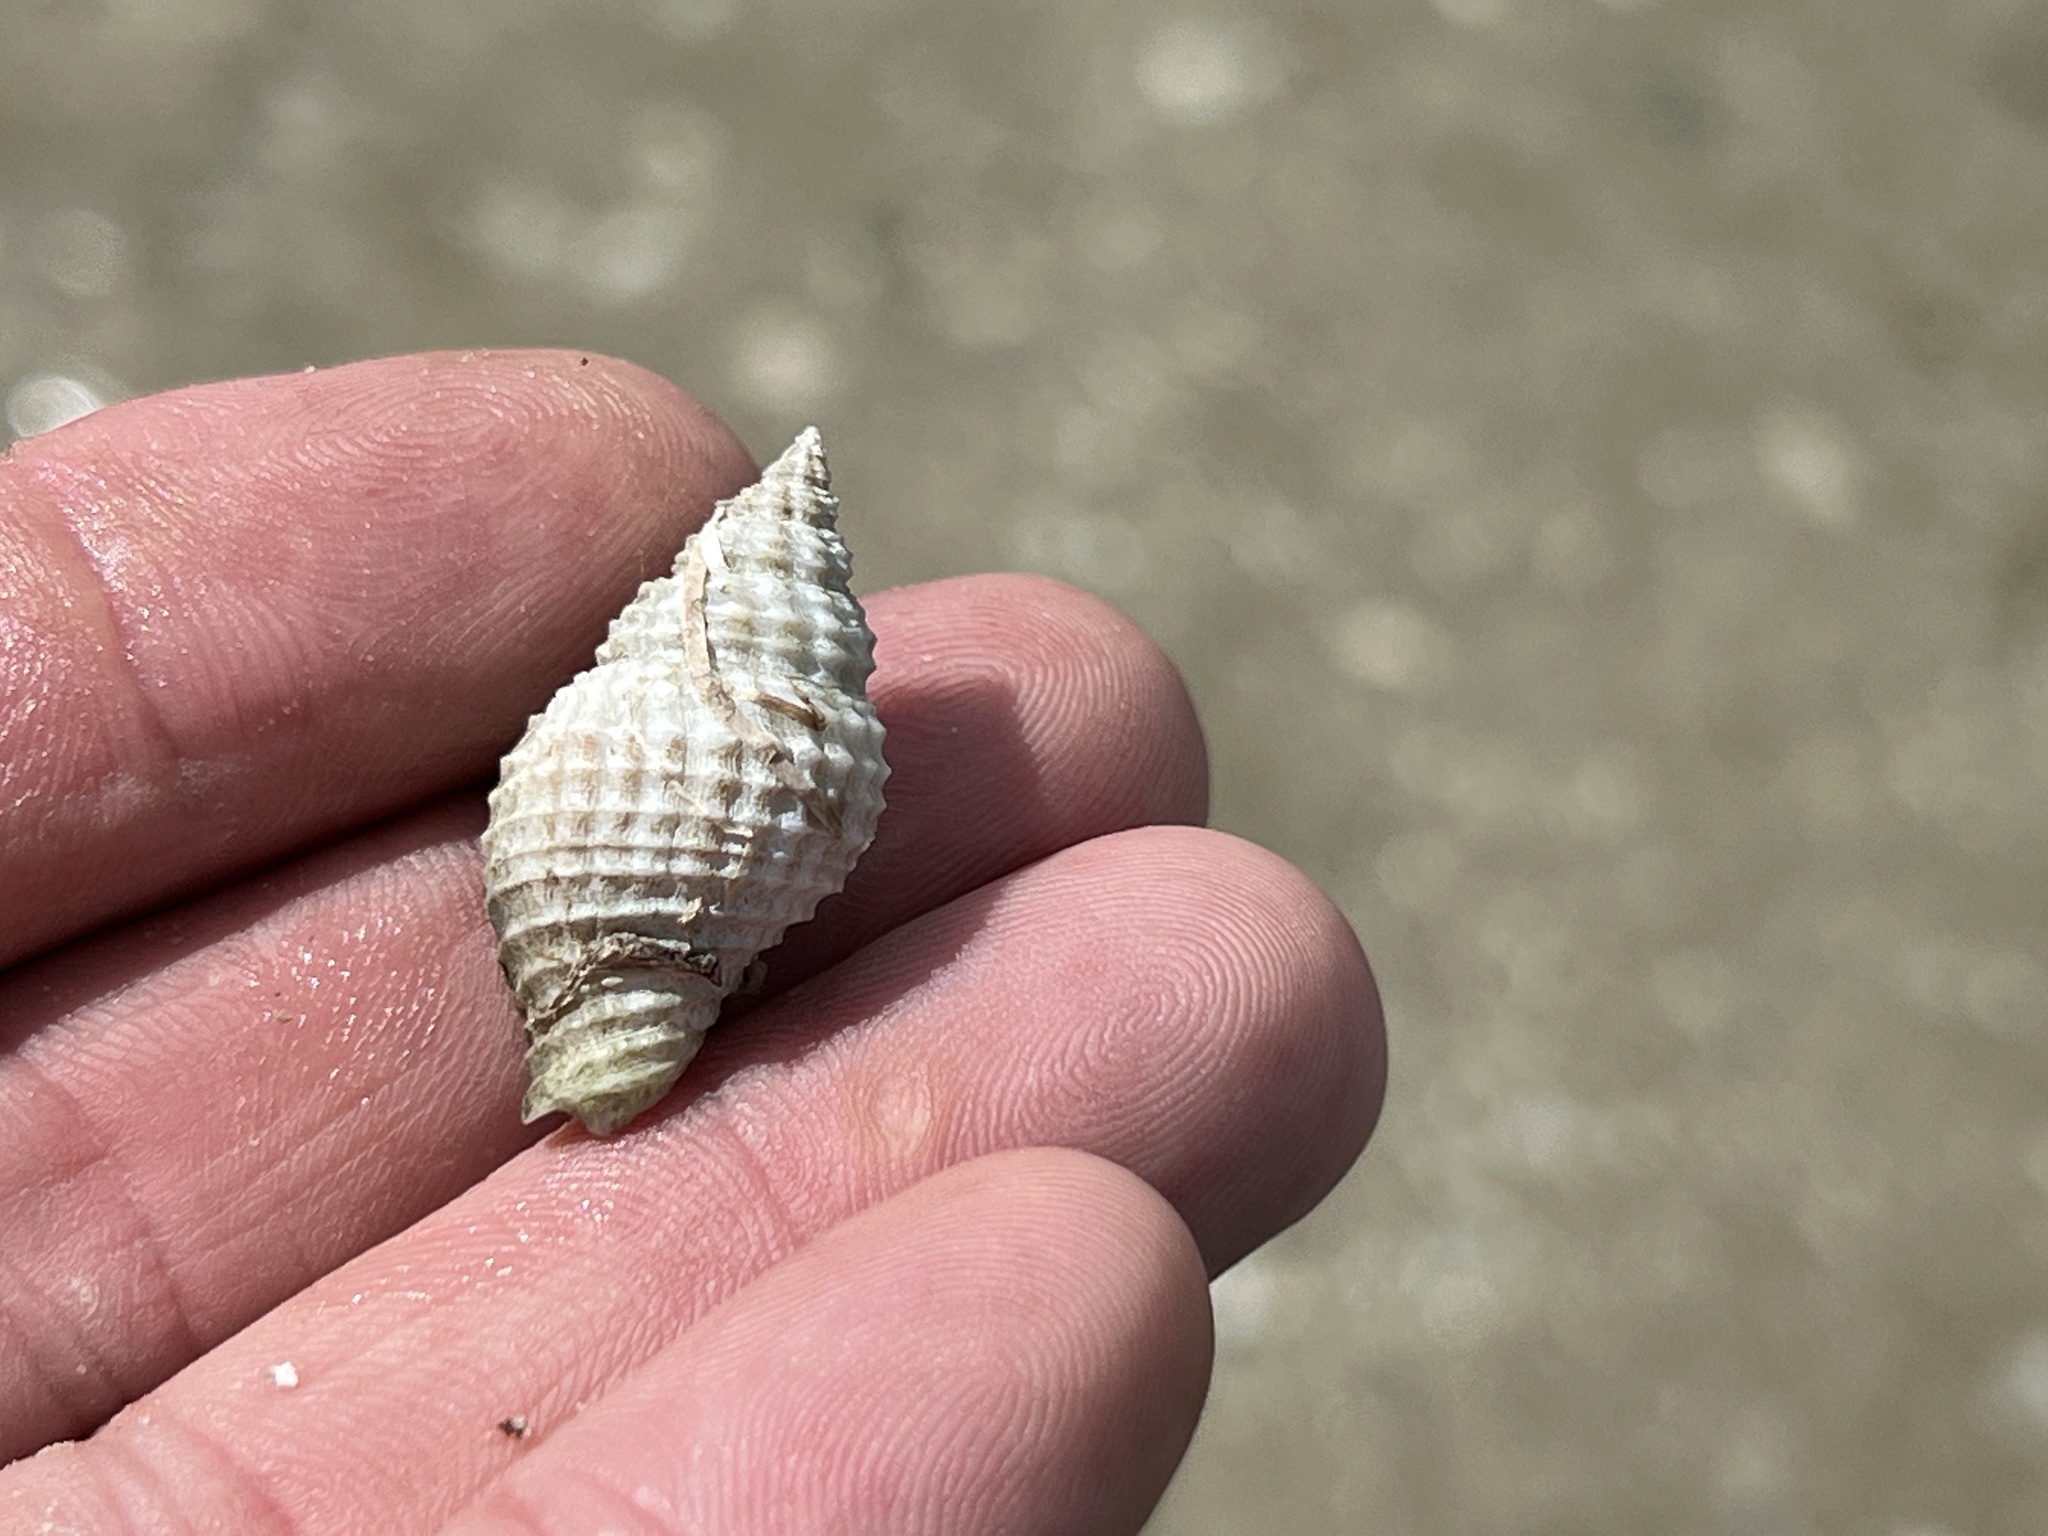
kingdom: Animalia
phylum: Mollusca
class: Gastropoda
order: Neogastropoda
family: Pisaniidae
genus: Solenosteira
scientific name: Solenosteira cancellaria
